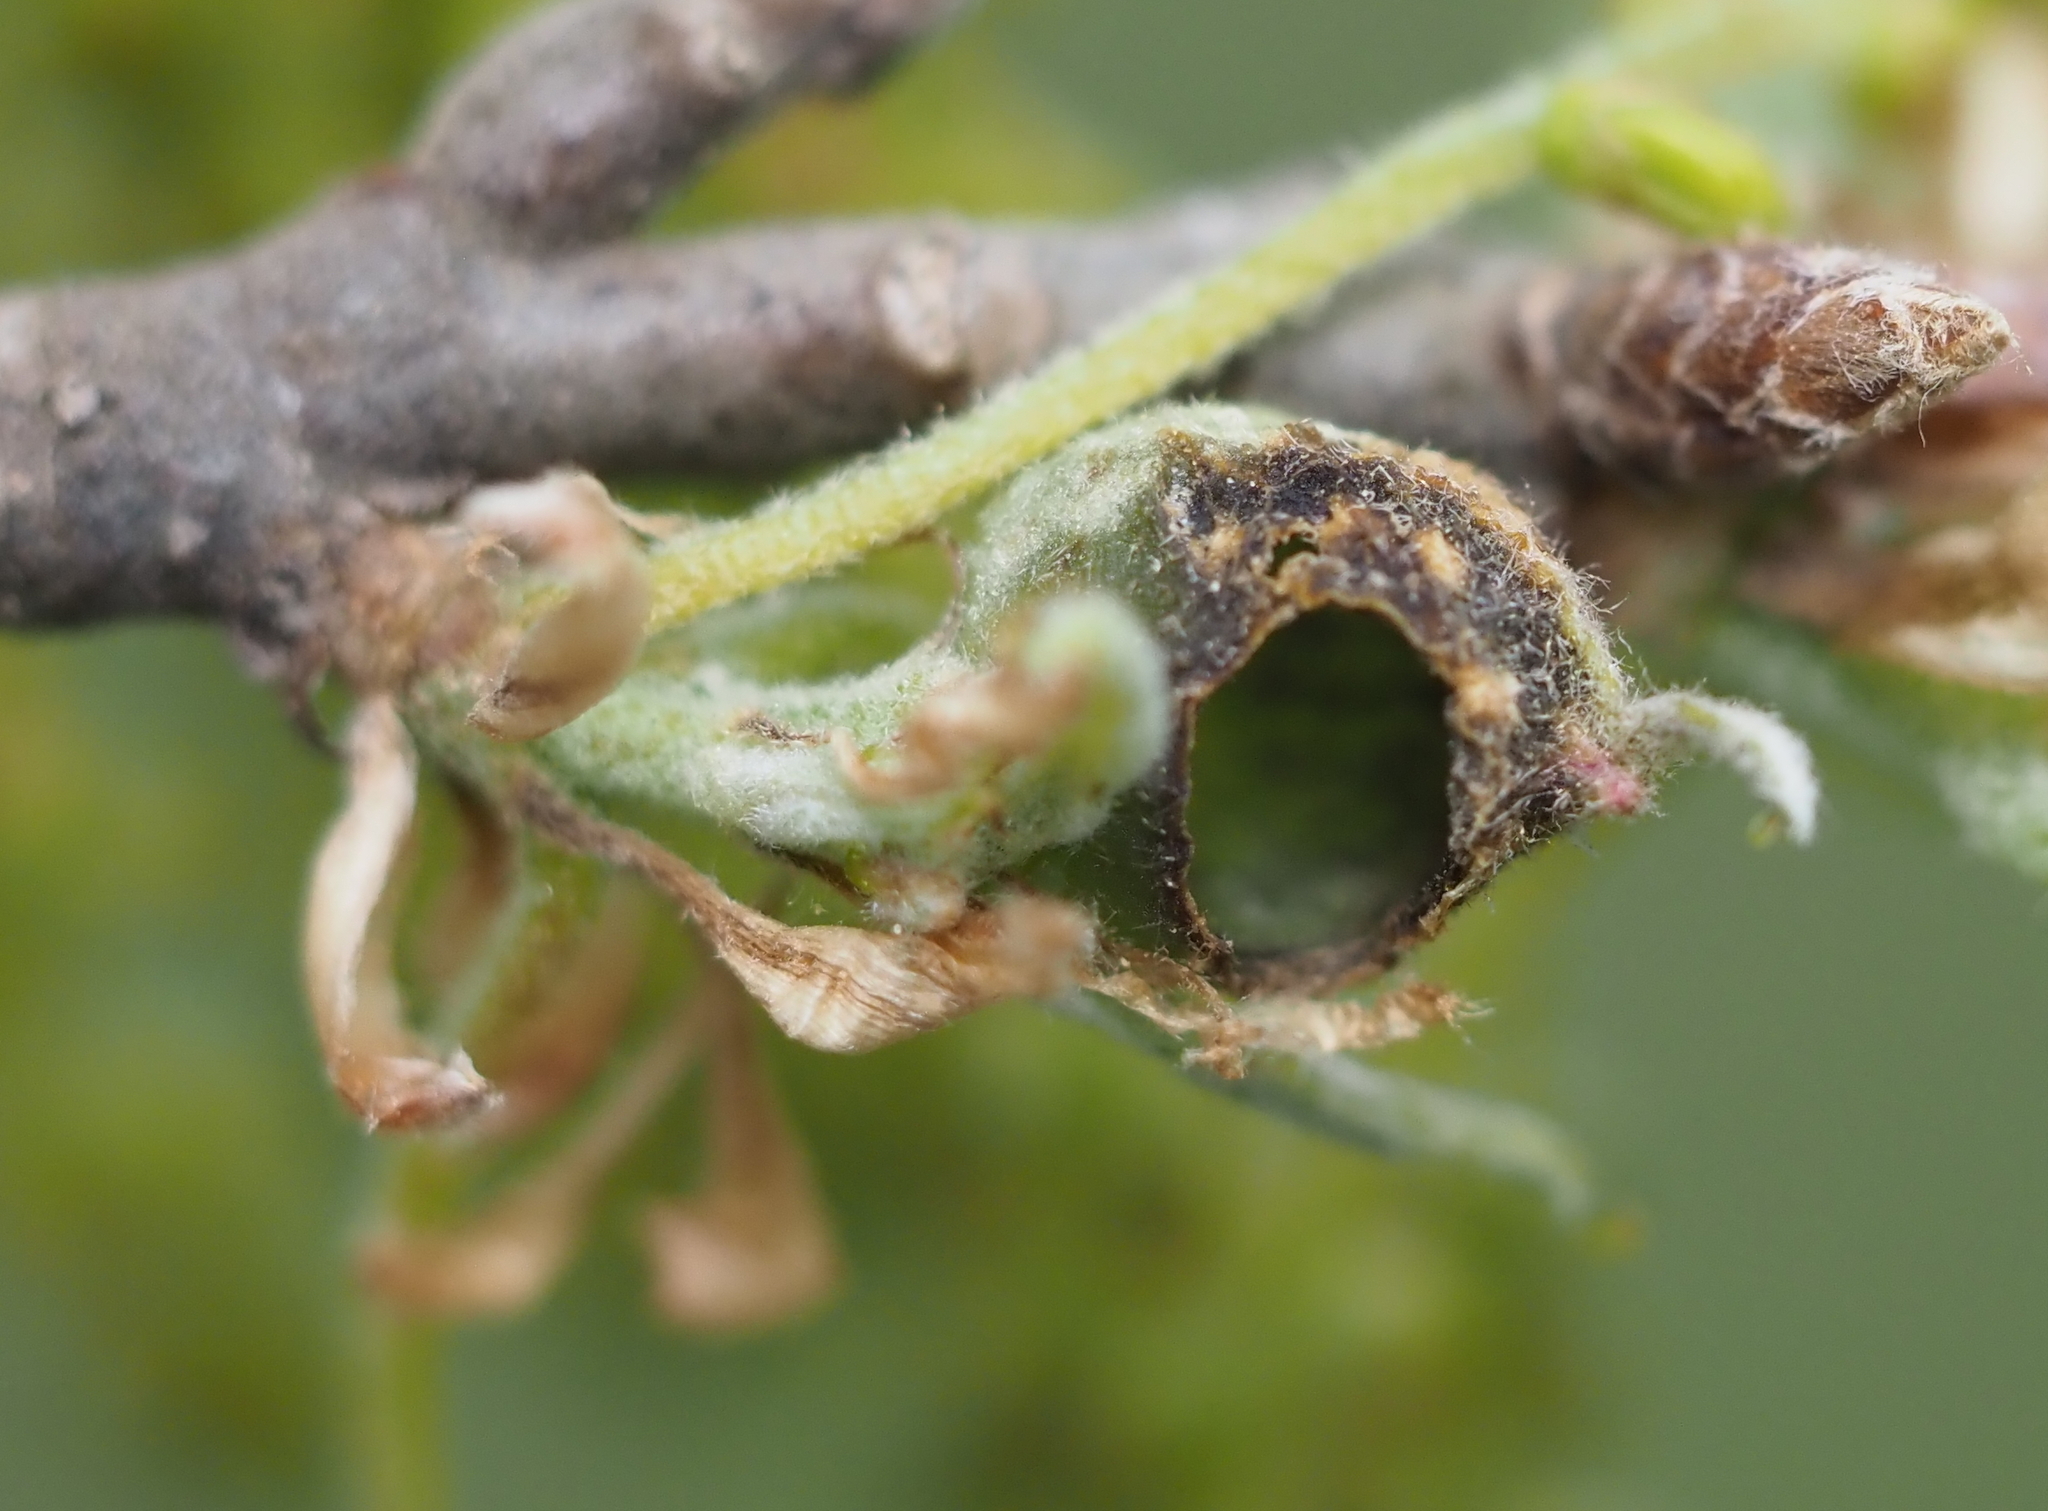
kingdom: Animalia
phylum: Arthropoda
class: Insecta
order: Hymenoptera
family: Cynipidae
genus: Dryocosmus
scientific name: Dryocosmus quercuspalustris
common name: Succulent oak gall wasp
